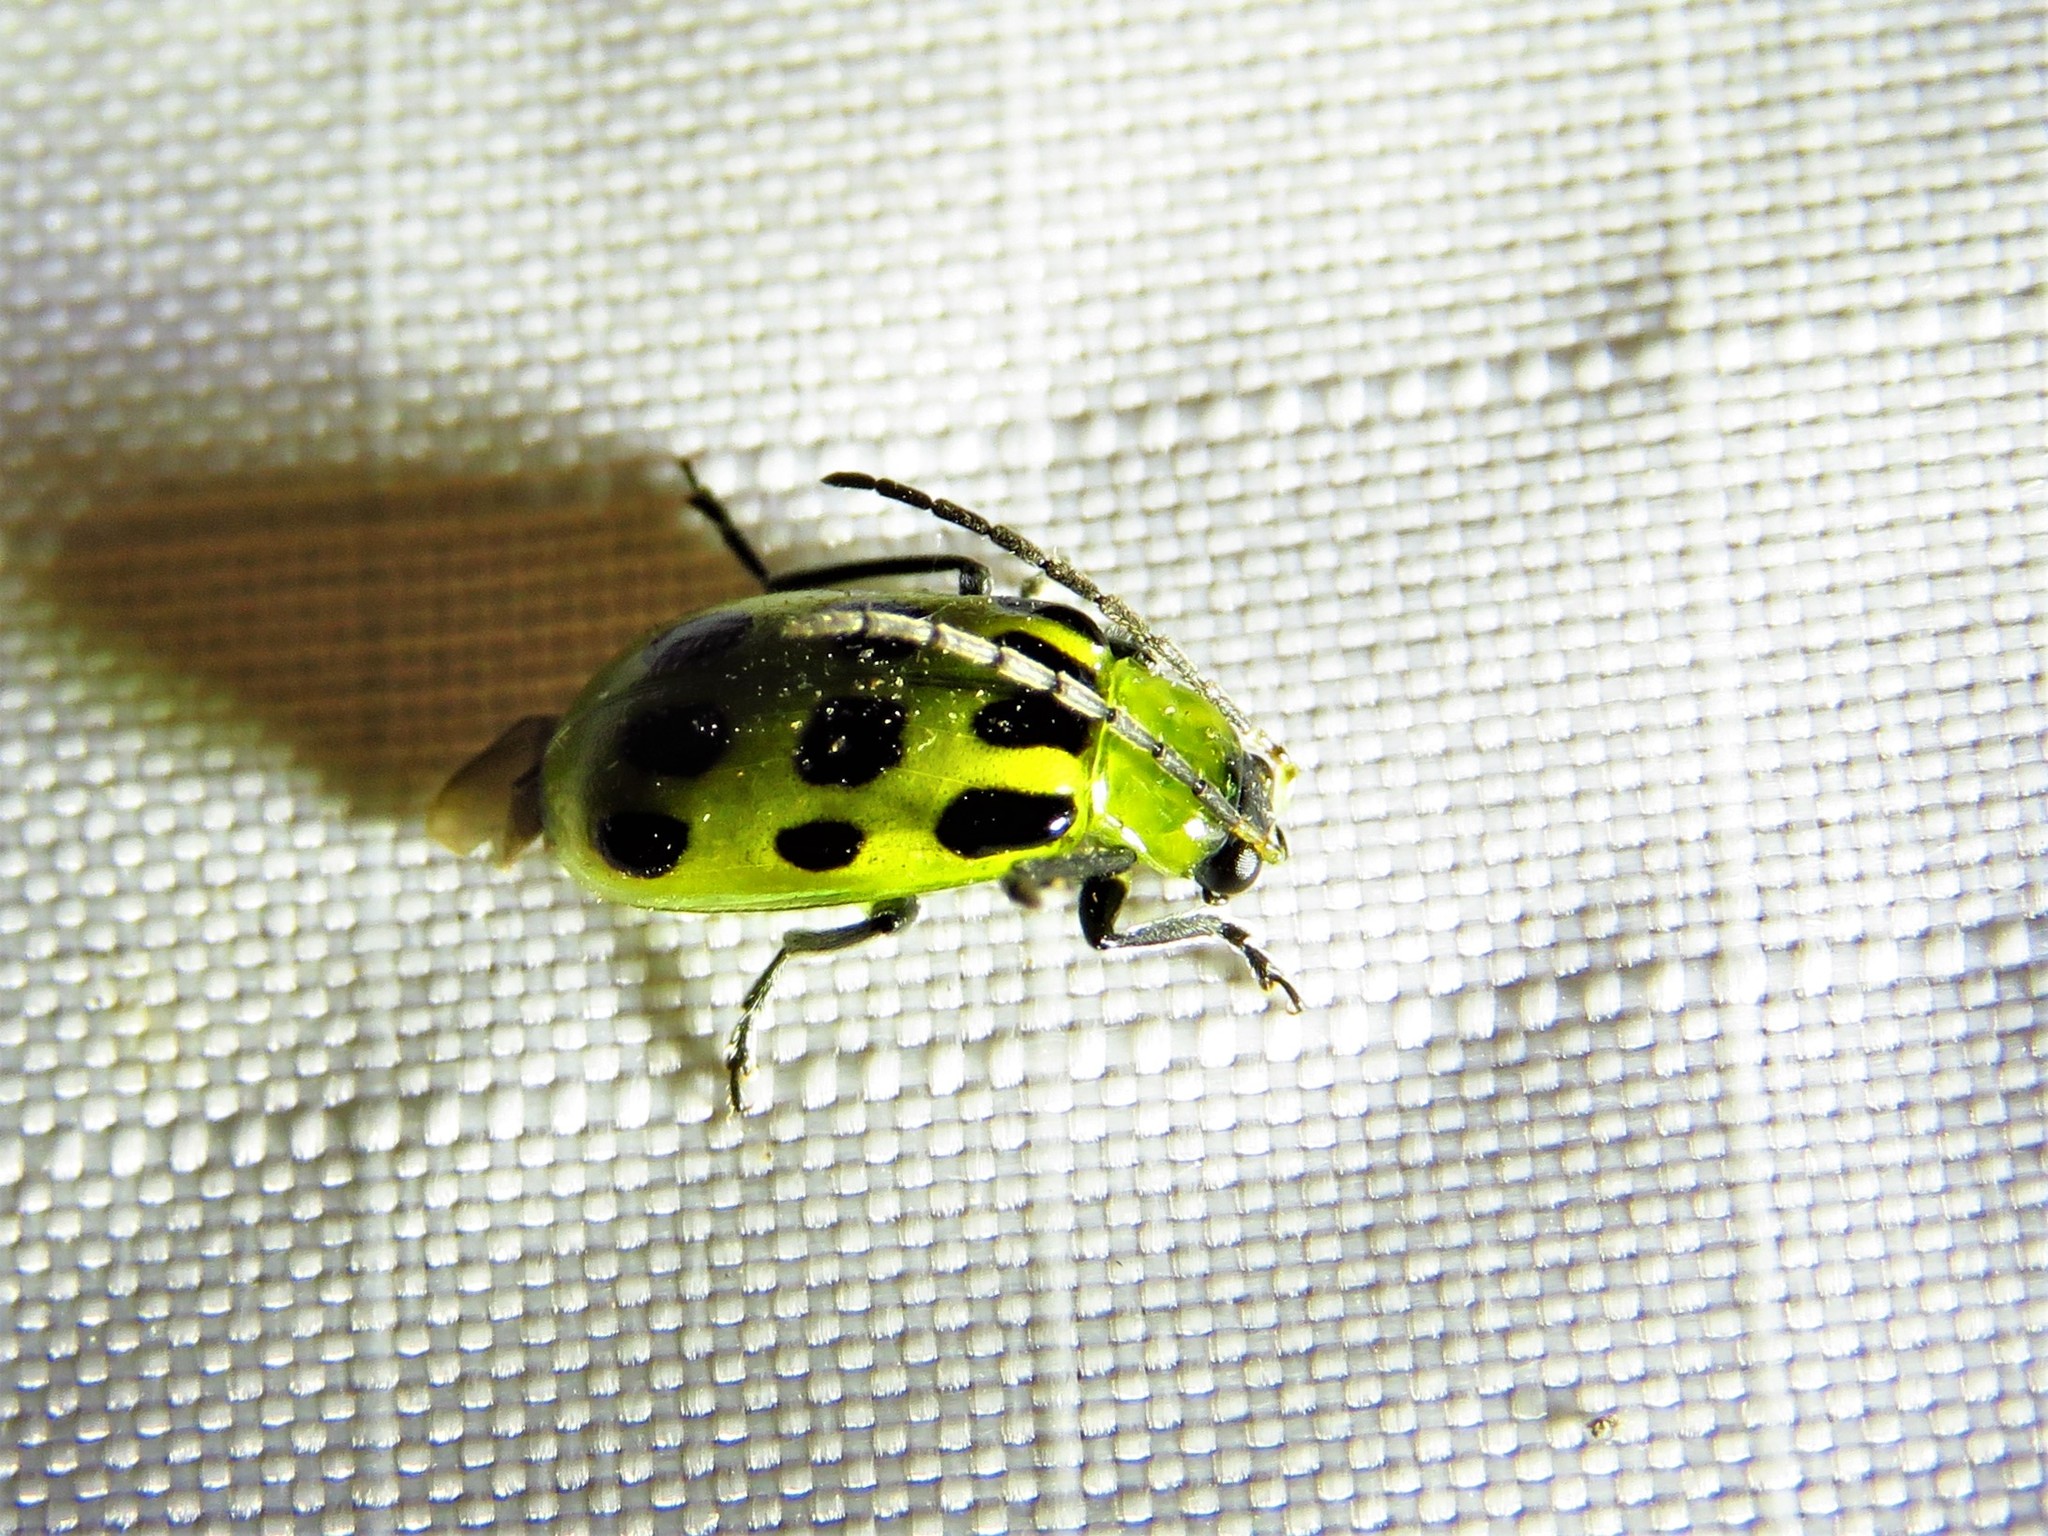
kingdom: Animalia
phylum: Arthropoda
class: Insecta
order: Coleoptera
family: Chrysomelidae
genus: Diabrotica
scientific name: Diabrotica undecimpunctata
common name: Spotted cucumber beetle
